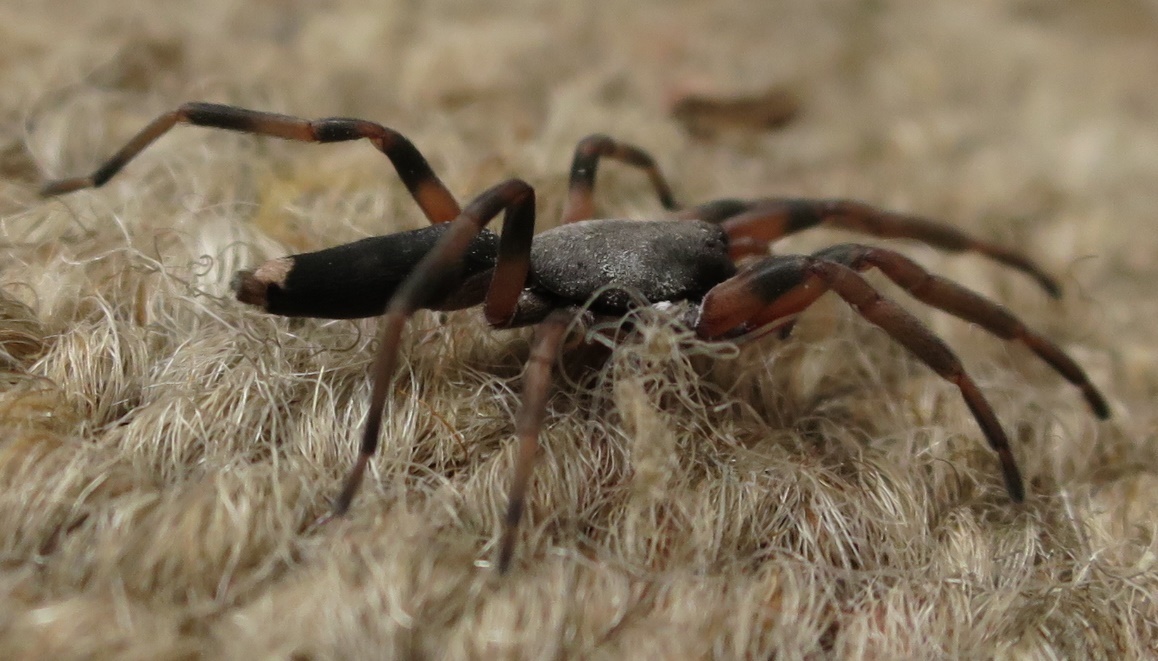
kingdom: Animalia
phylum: Arthropoda
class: Arachnida
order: Araneae
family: Lamponidae
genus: Lampona
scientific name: Lampona murina
